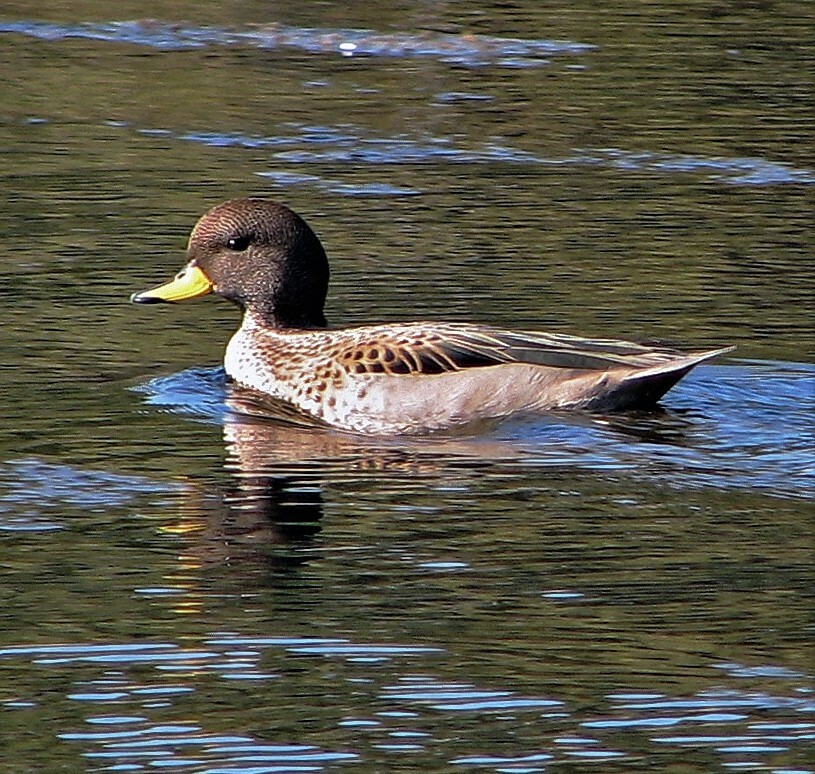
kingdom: Animalia
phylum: Chordata
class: Aves
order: Anseriformes
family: Anatidae
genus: Anas
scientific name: Anas flavirostris
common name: Yellow-billed teal
